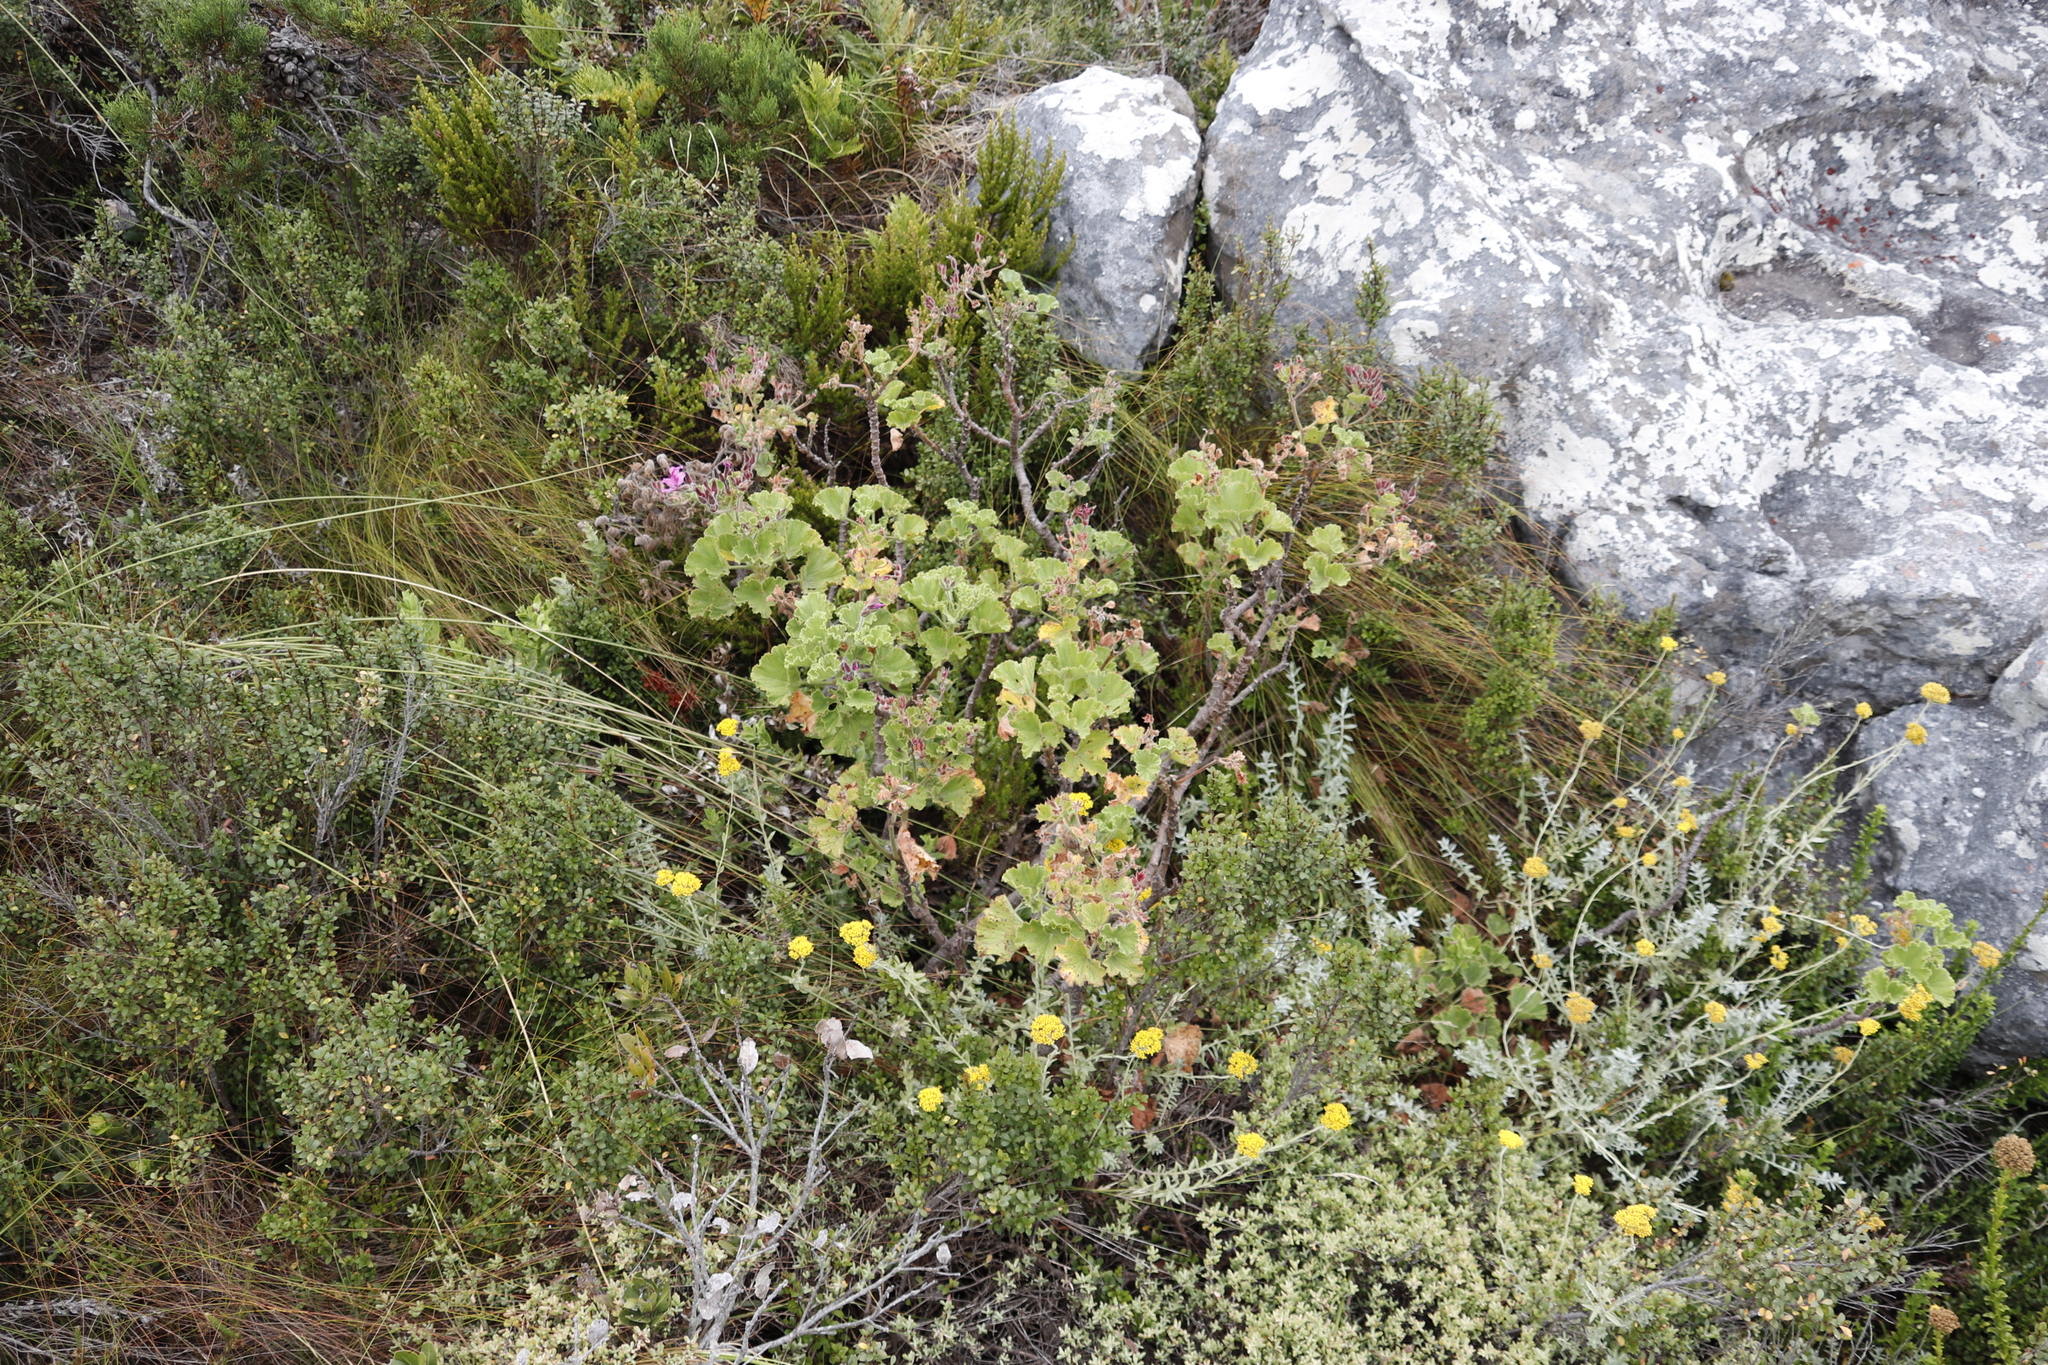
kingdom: Plantae
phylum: Tracheophyta
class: Magnoliopsida
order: Geraniales
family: Geraniaceae
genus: Pelargonium
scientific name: Pelargonium cucullatum
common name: Tree pelargonium
